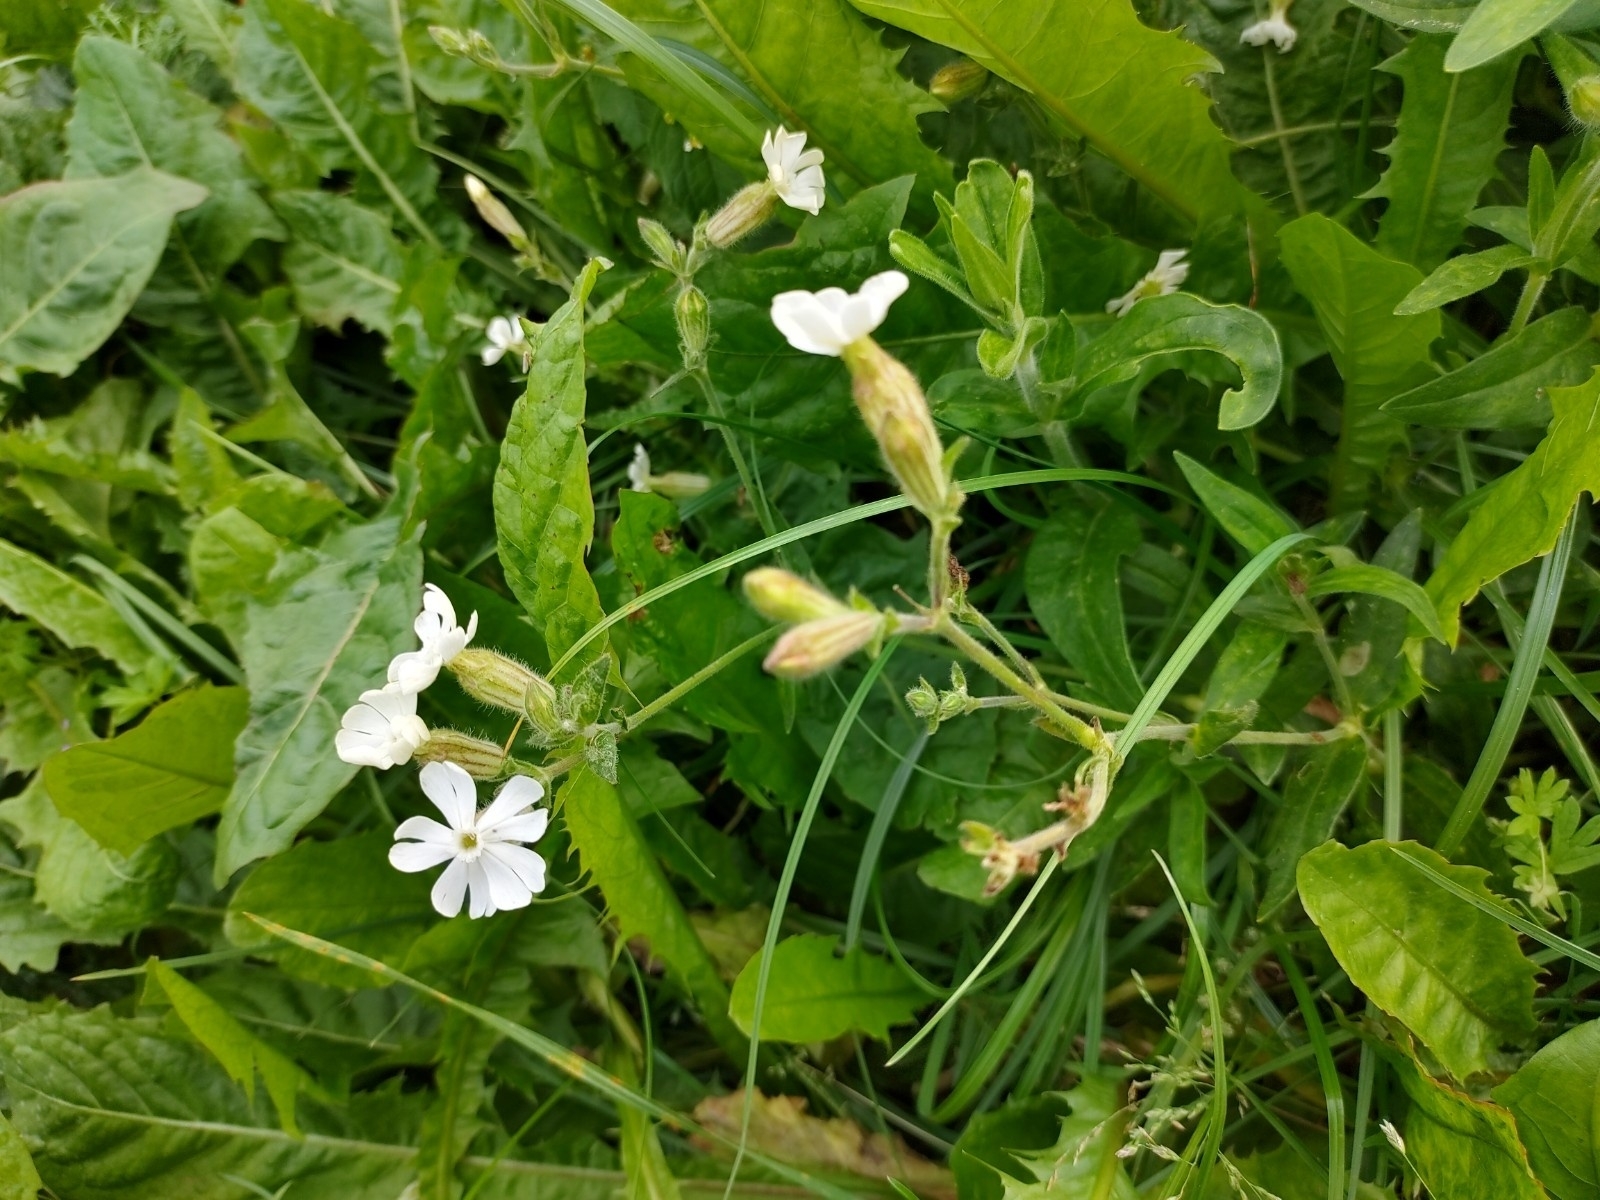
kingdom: Plantae
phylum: Tracheophyta
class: Magnoliopsida
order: Caryophyllales
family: Caryophyllaceae
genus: Silene
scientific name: Silene latifolia
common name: White campion
